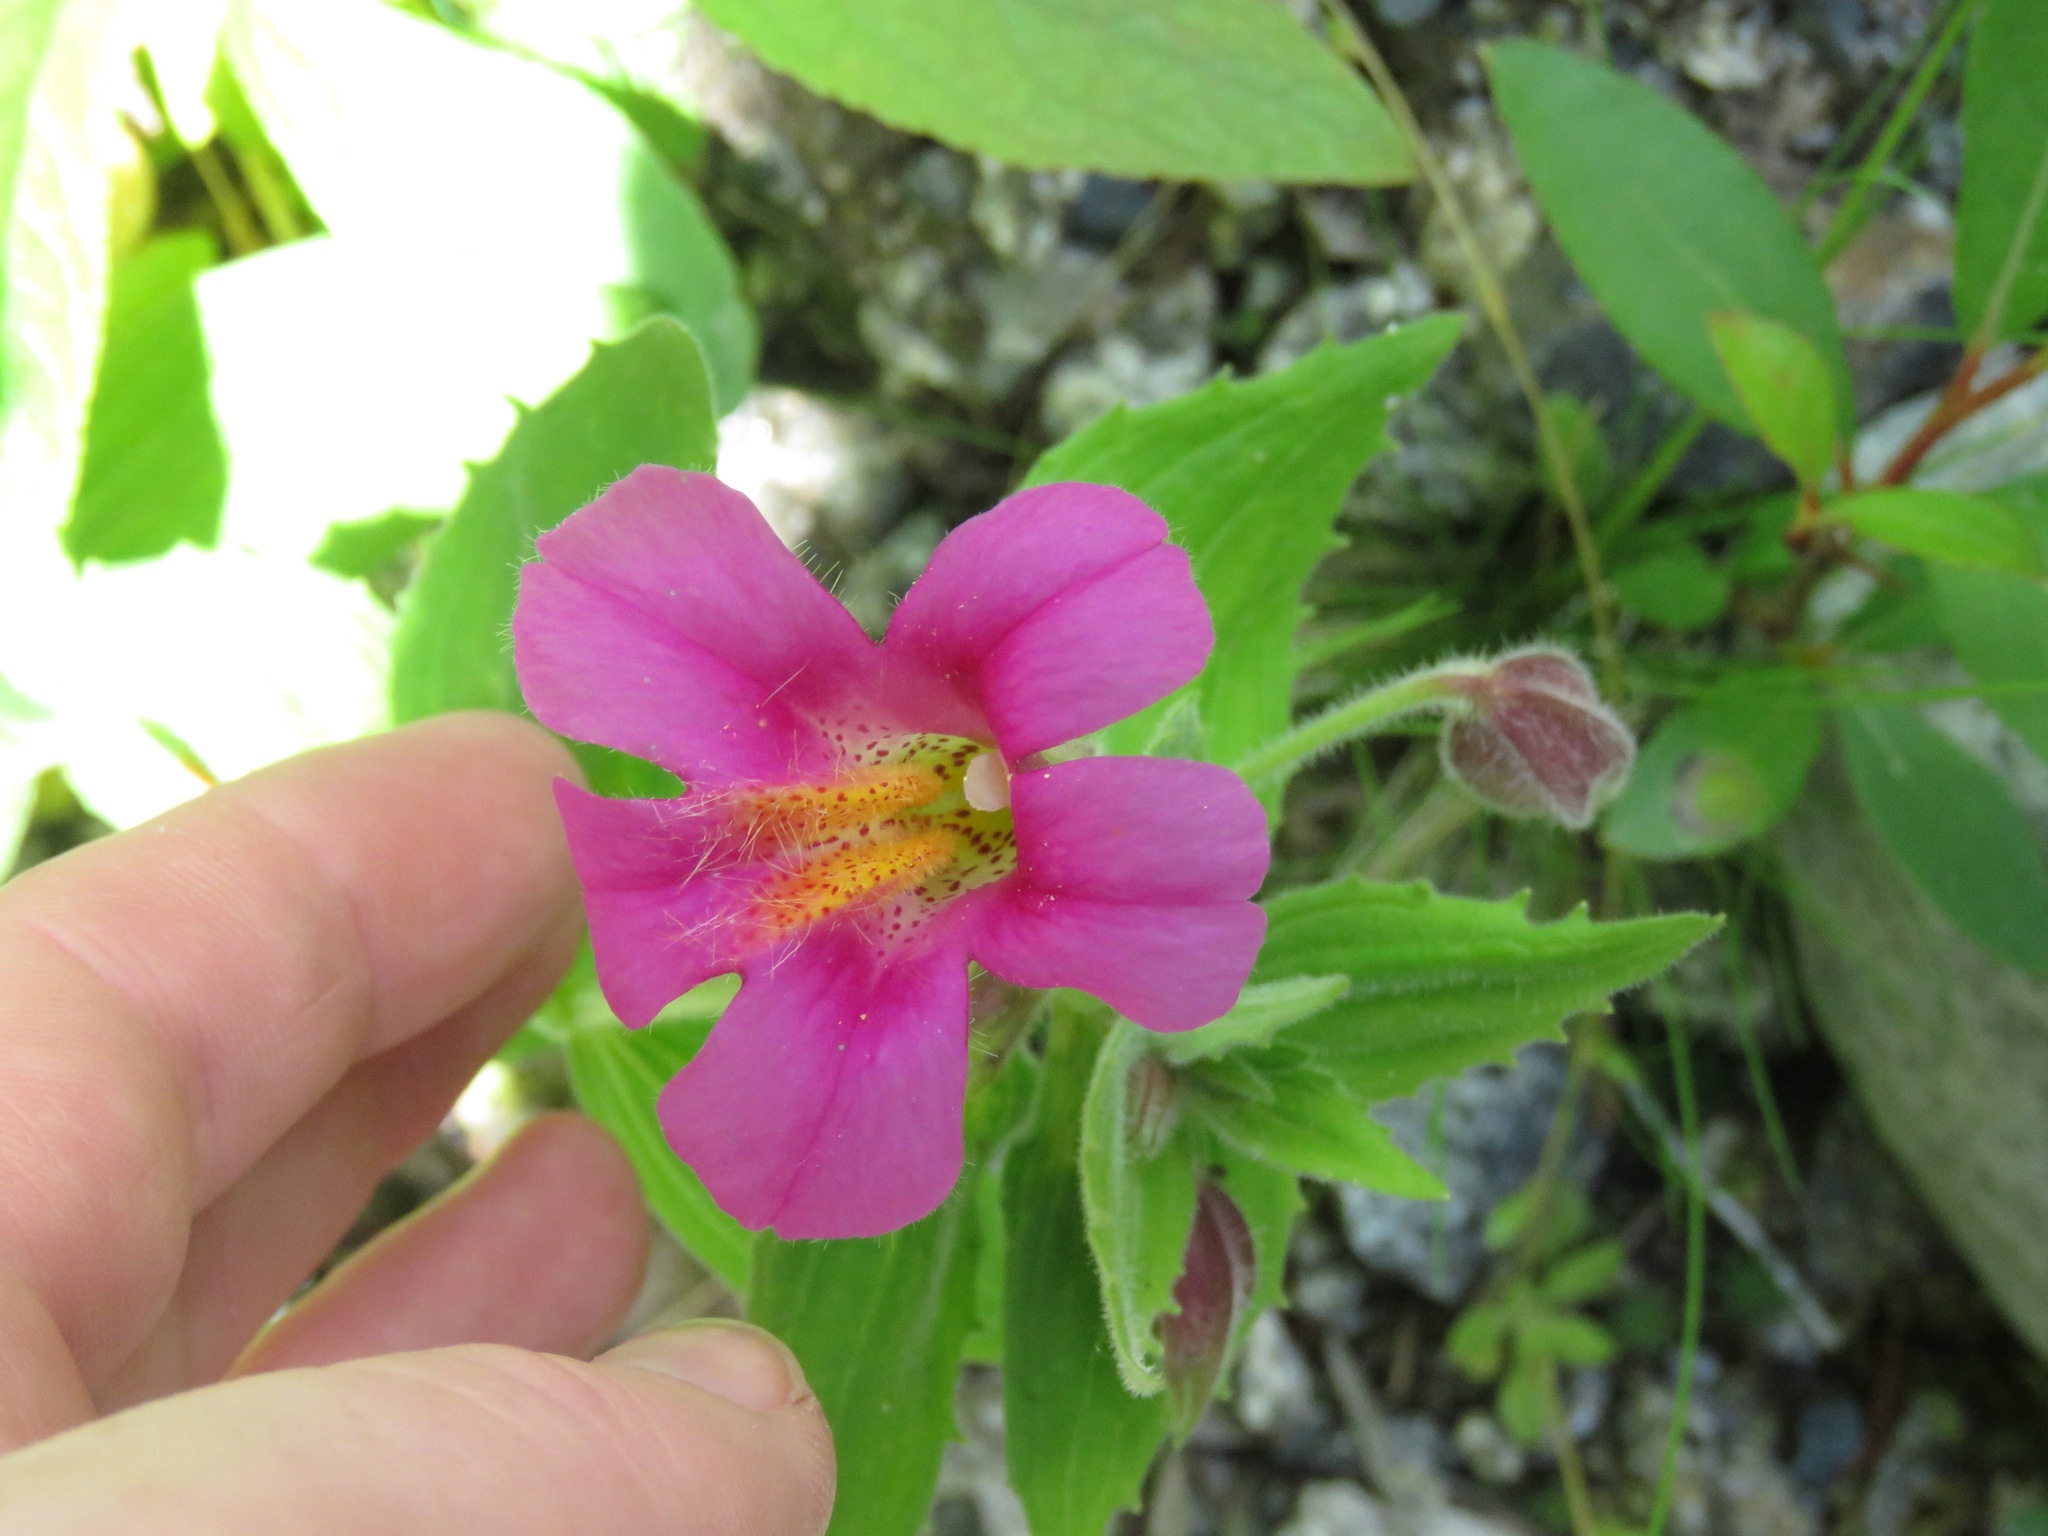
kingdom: Plantae
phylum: Tracheophyta
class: Magnoliopsida
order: Lamiales
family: Phrymaceae
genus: Erythranthe
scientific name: Erythranthe lewisii
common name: Lewis's monkey-flower
